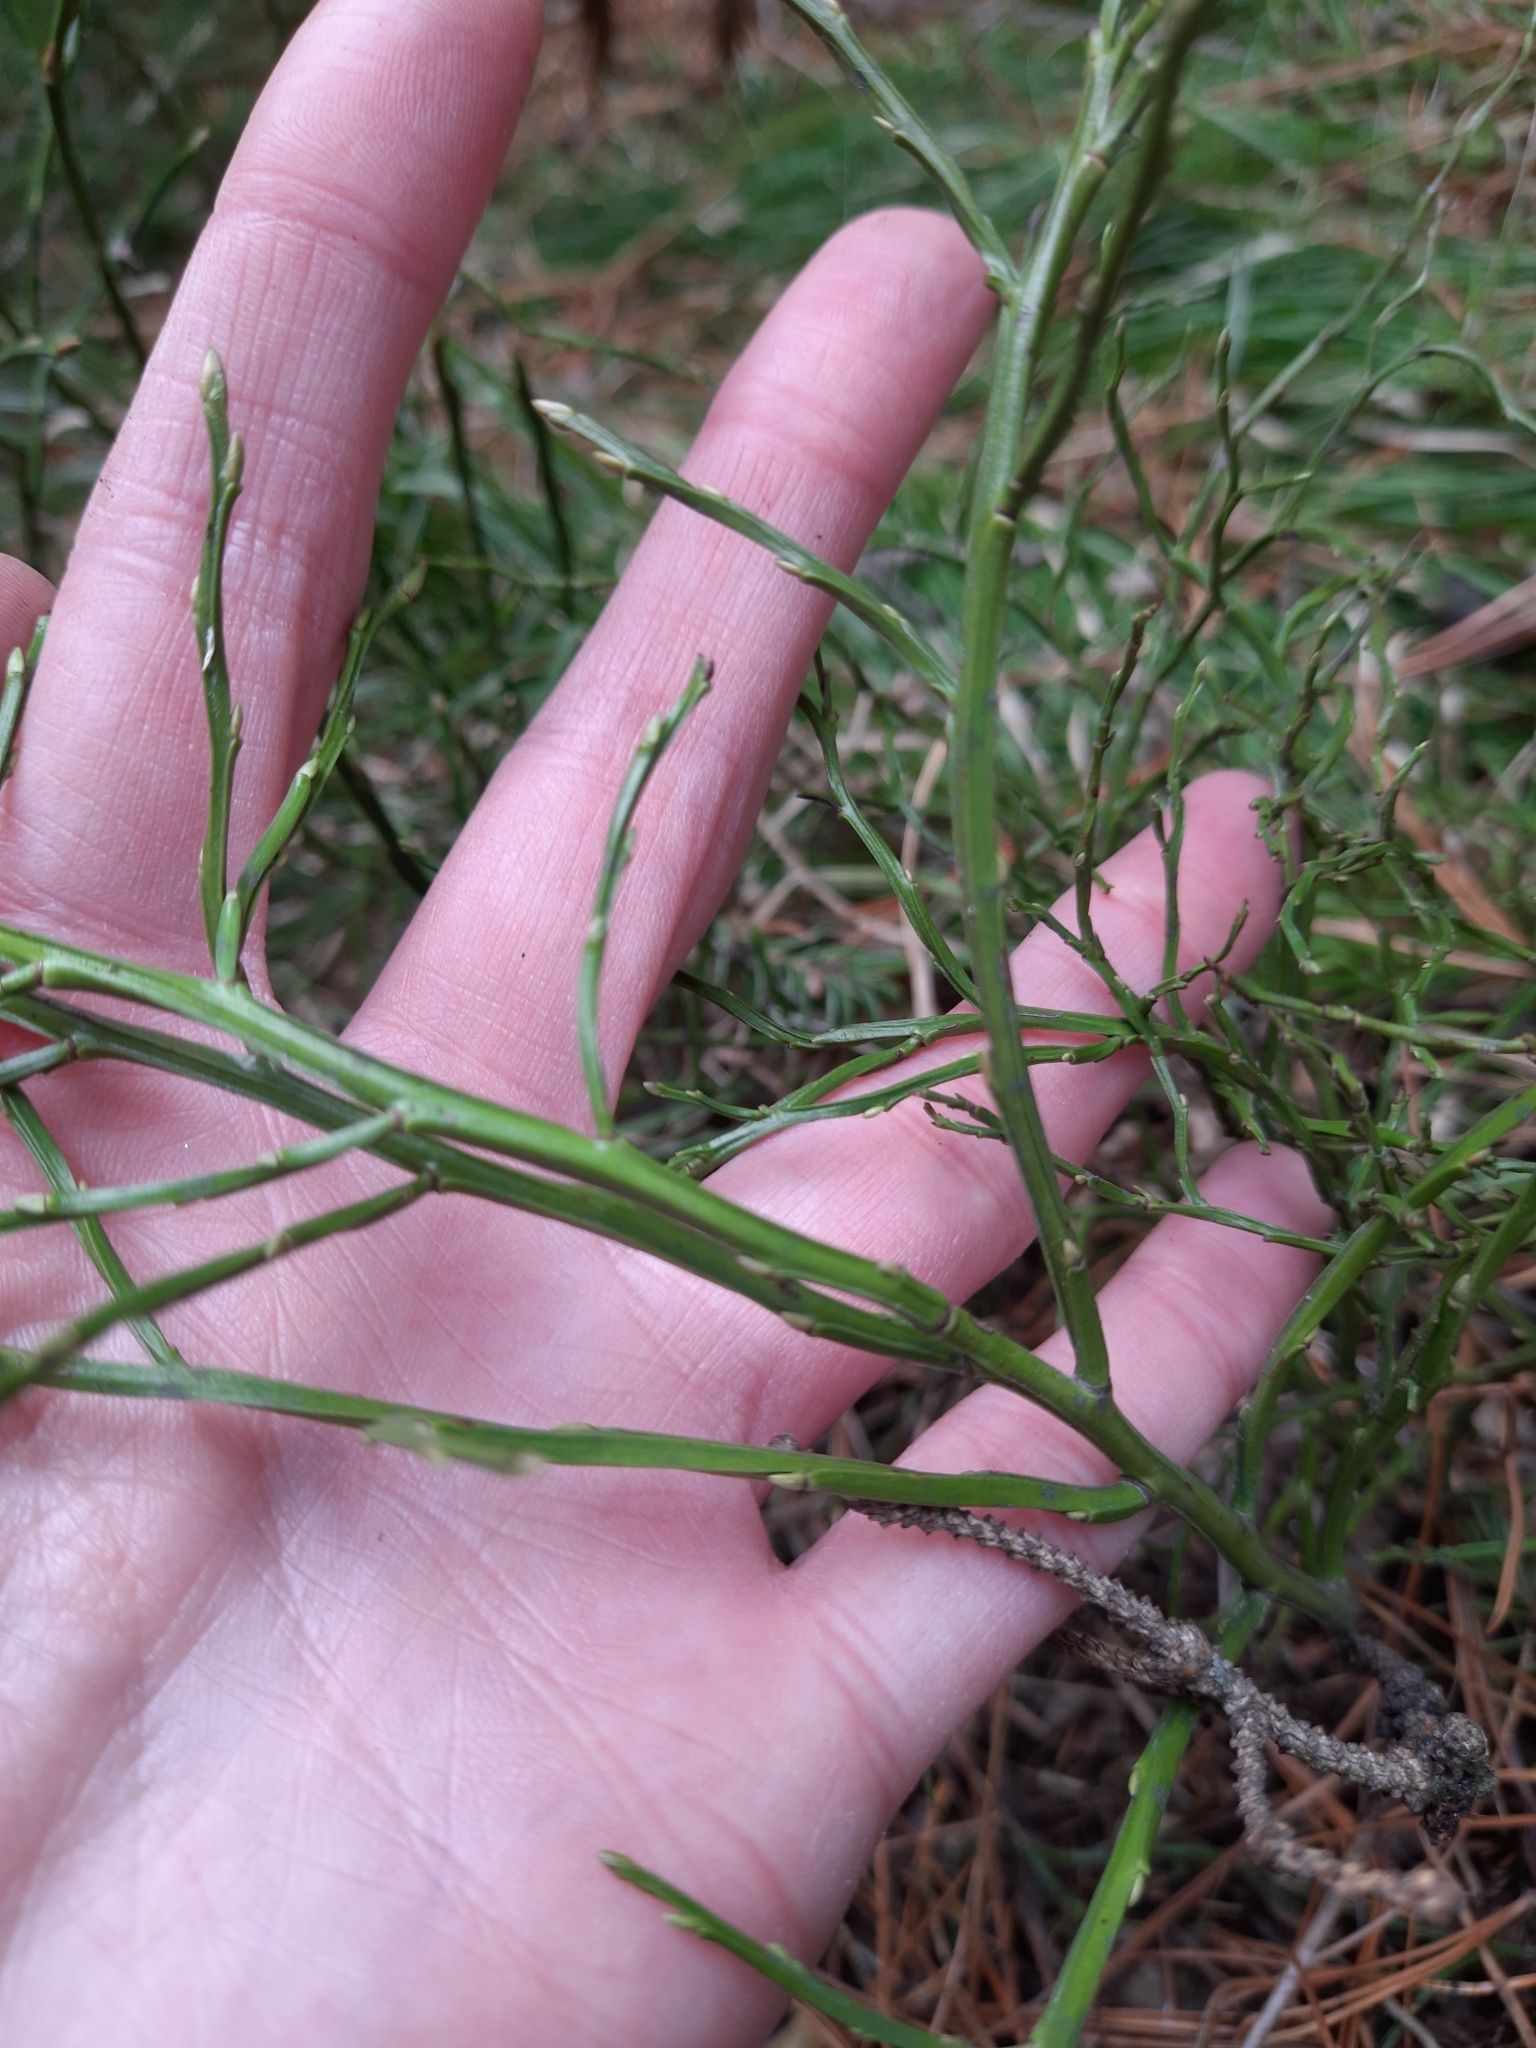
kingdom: Plantae
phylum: Tracheophyta
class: Magnoliopsida
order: Ericales
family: Ericaceae
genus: Vaccinium
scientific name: Vaccinium myrtillus
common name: Bilberry
